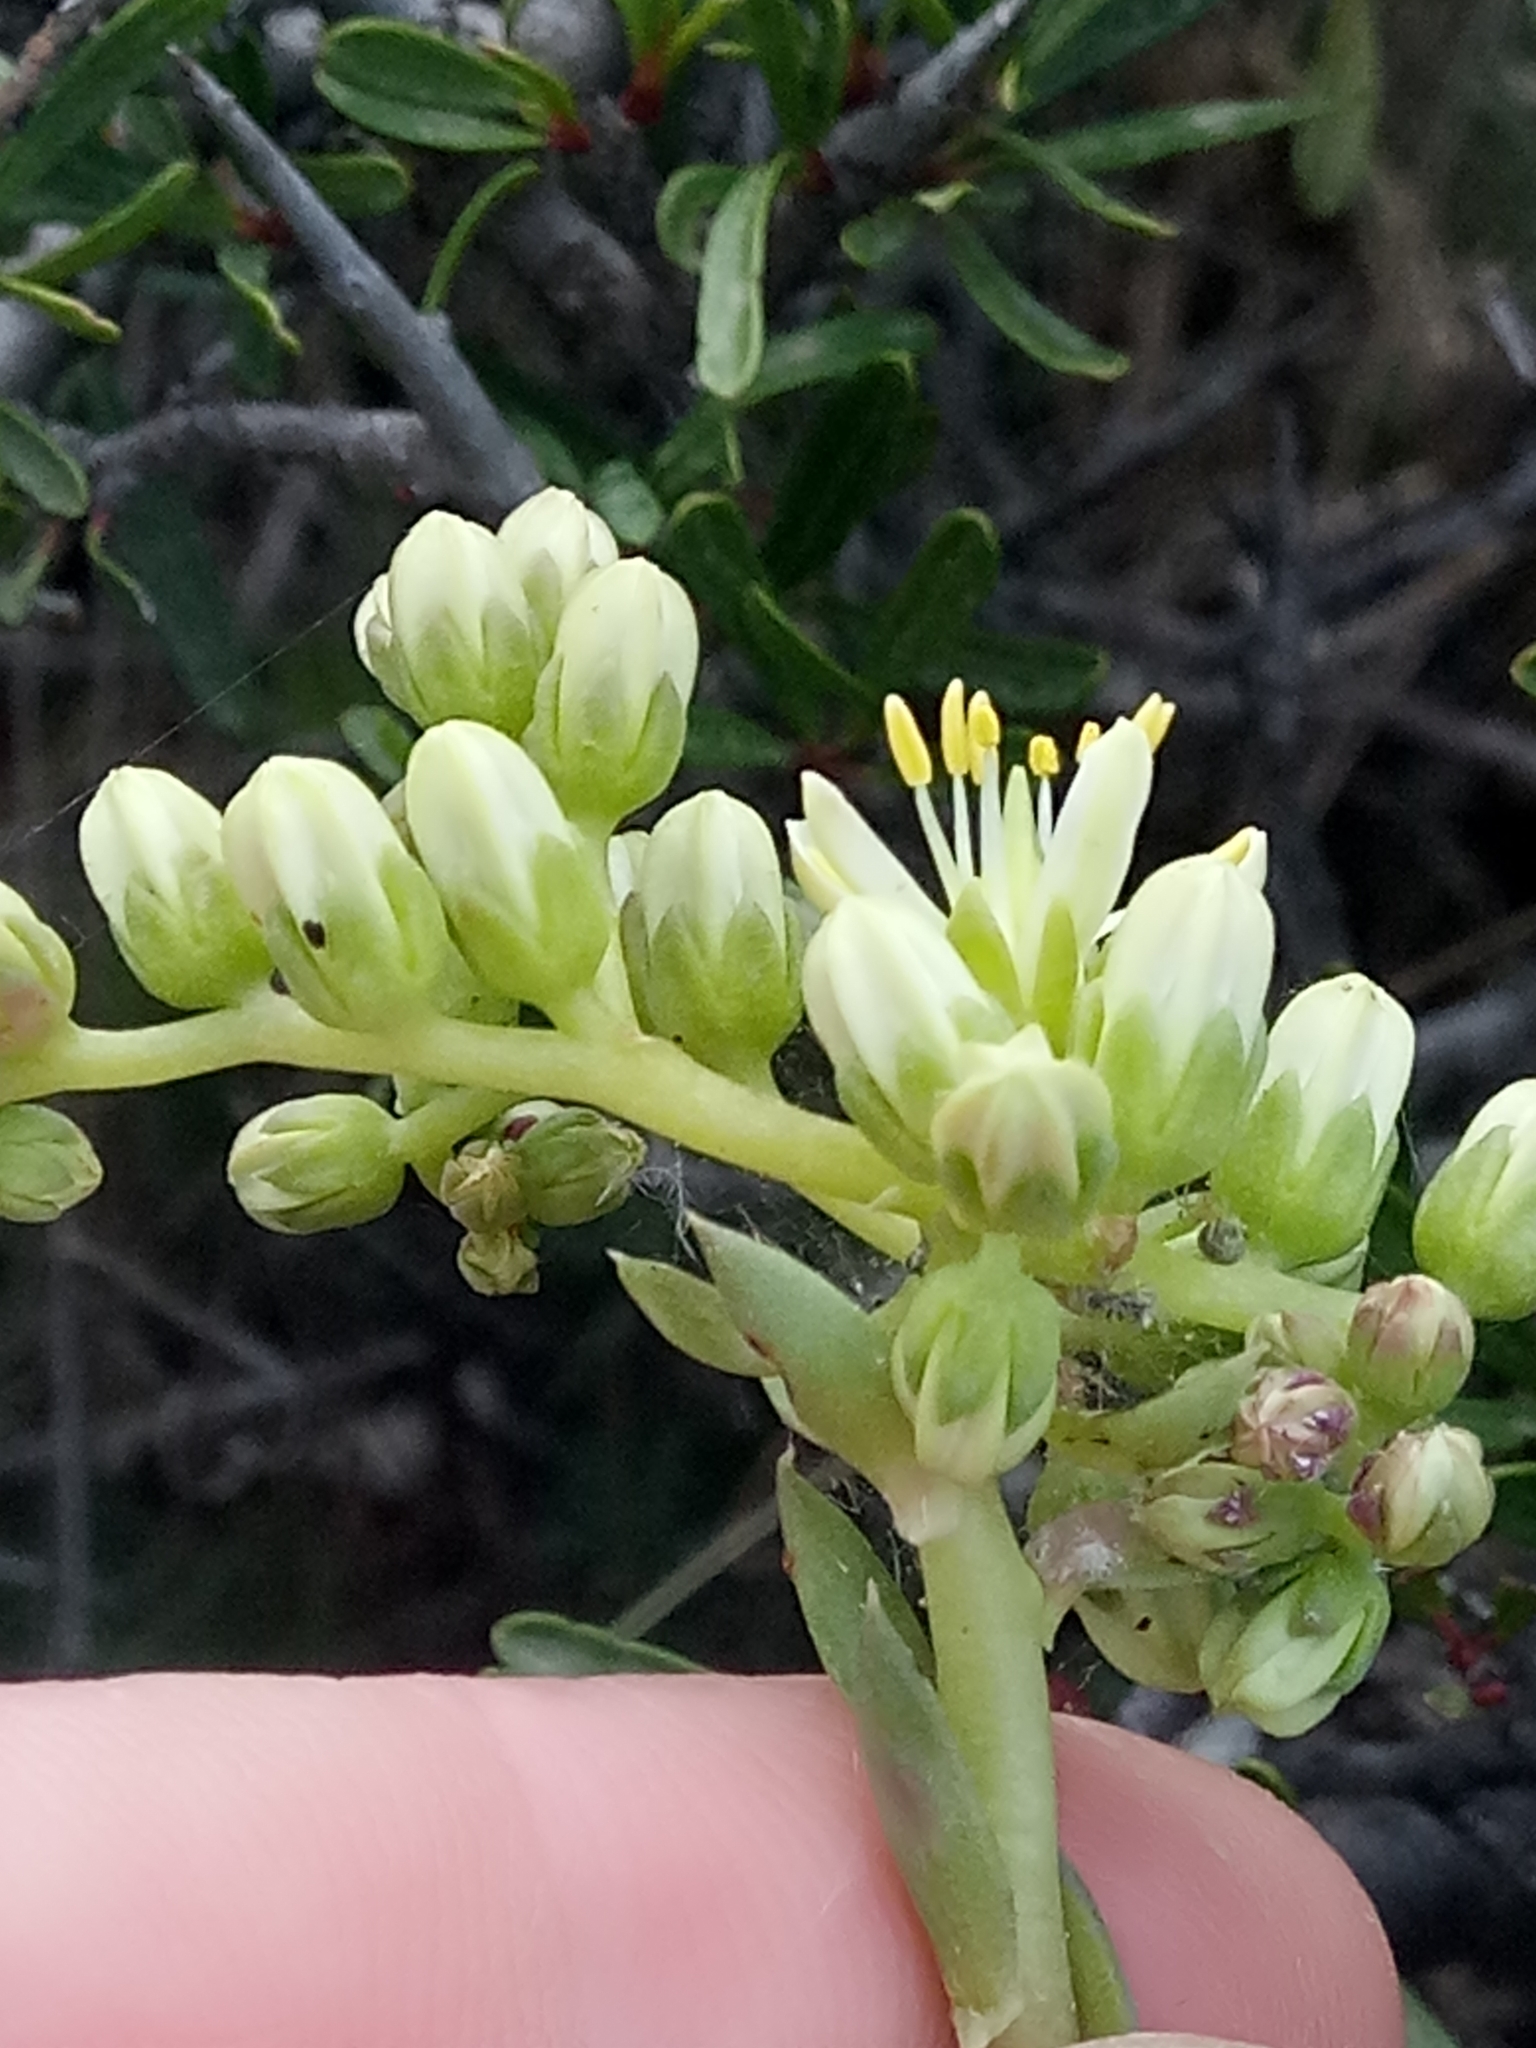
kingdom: Plantae
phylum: Tracheophyta
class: Magnoliopsida
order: Saxifragales
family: Crassulaceae
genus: Petrosedum
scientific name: Petrosedum sediforme
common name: Pale stonecrop
